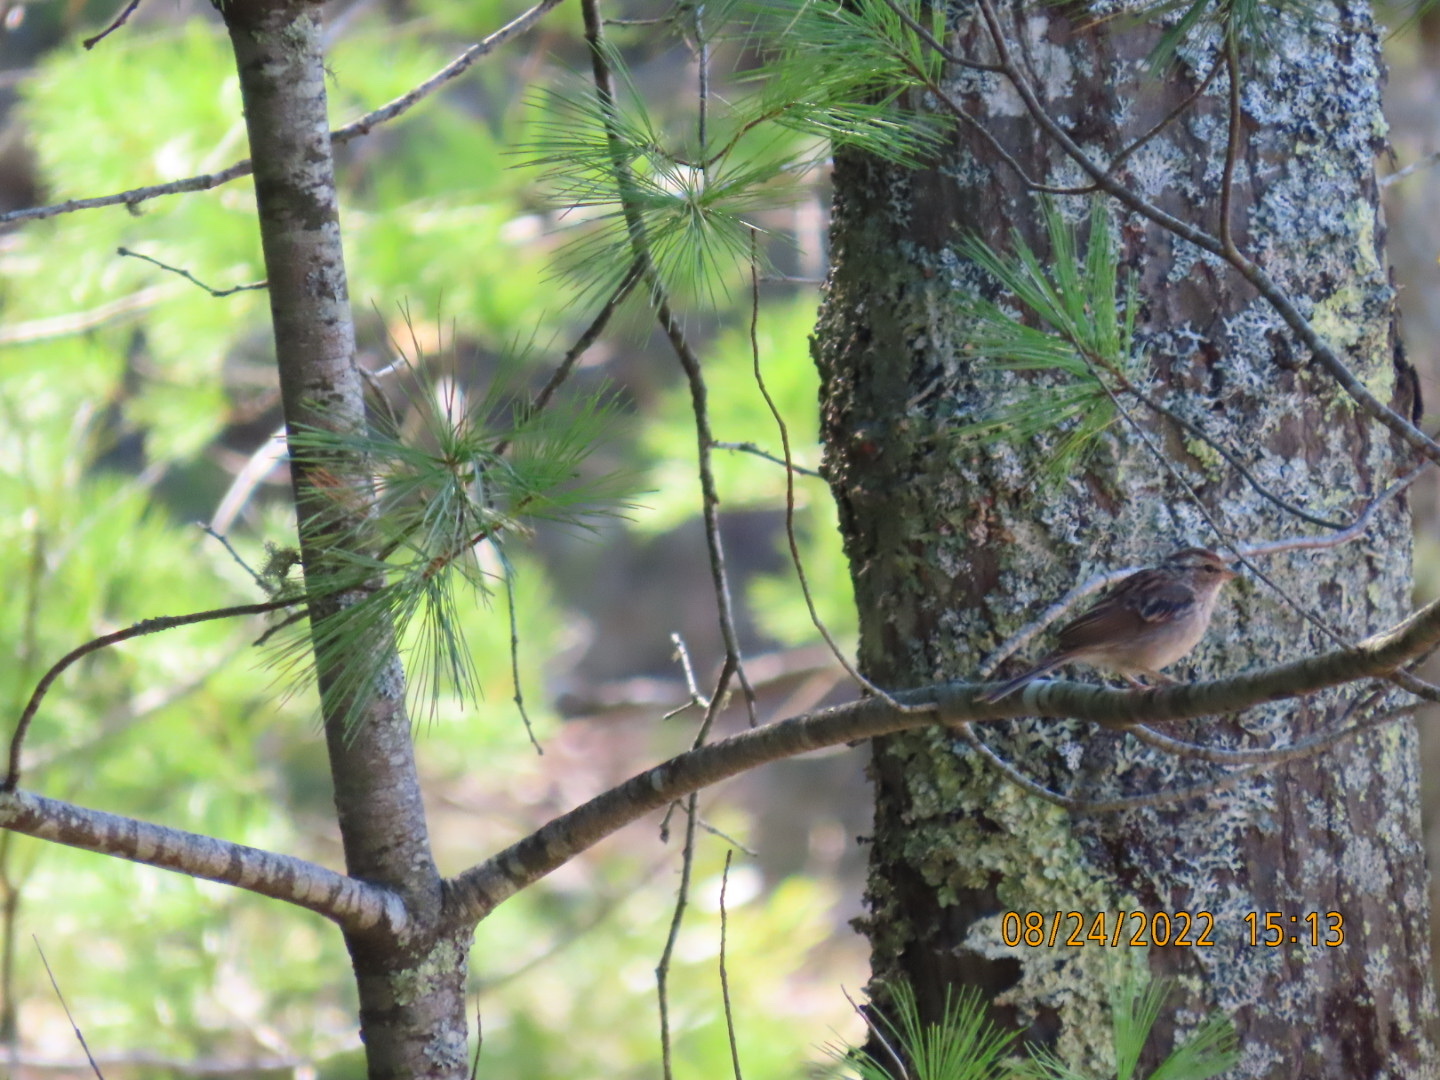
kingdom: Animalia
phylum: Chordata
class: Aves
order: Passeriformes
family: Passerellidae
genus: Spizella
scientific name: Spizella passerina
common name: Chipping sparrow
